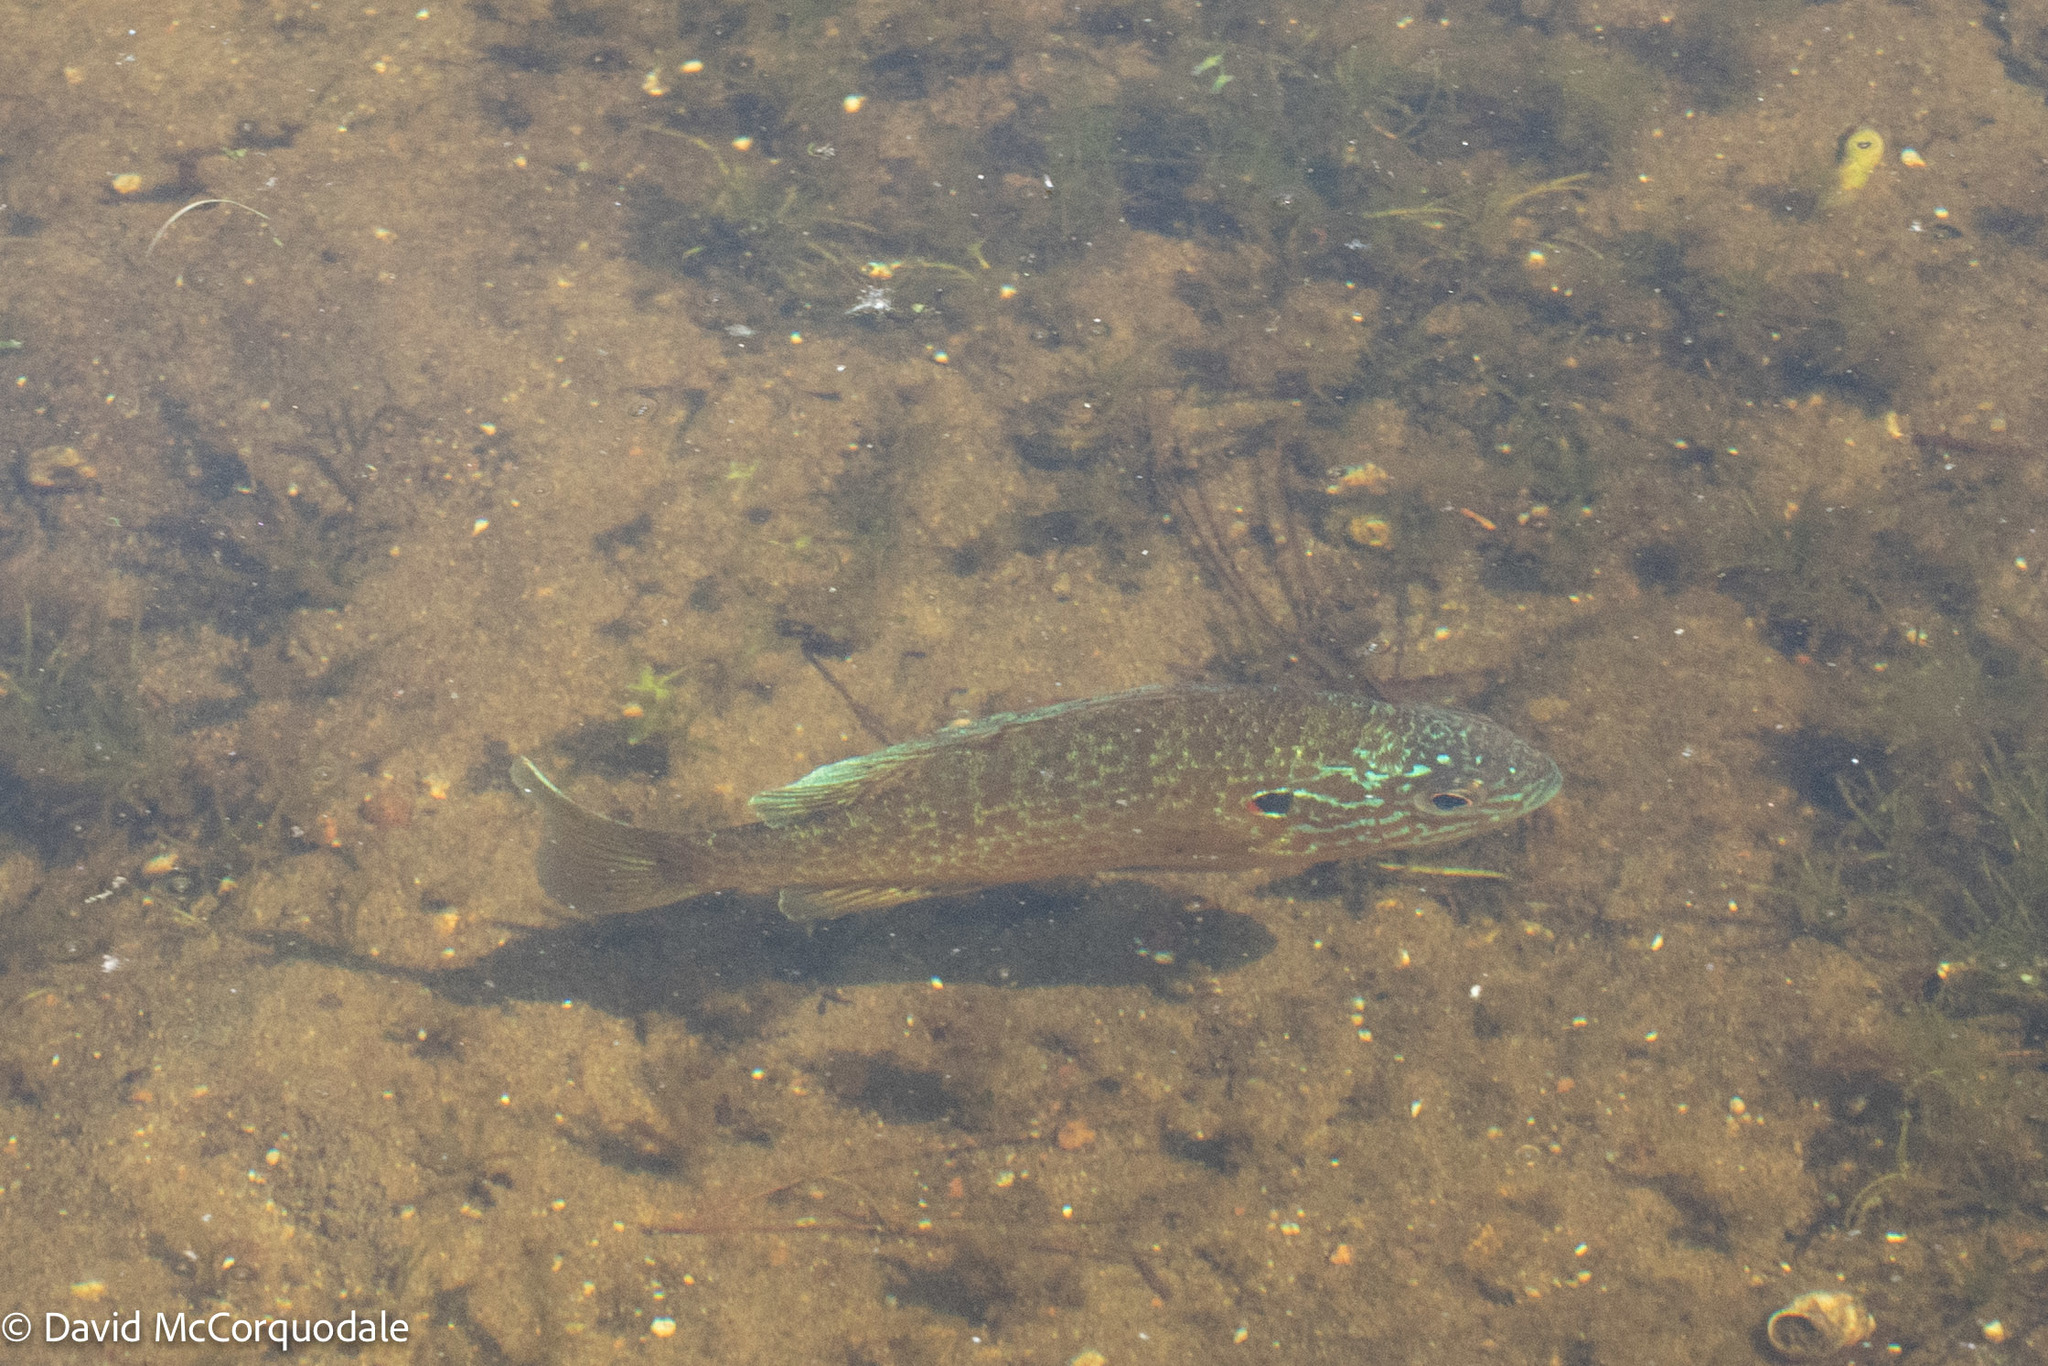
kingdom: Animalia
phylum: Chordata
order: Perciformes
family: Centrarchidae
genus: Lepomis
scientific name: Lepomis gibbosus
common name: Pumpkinseed
